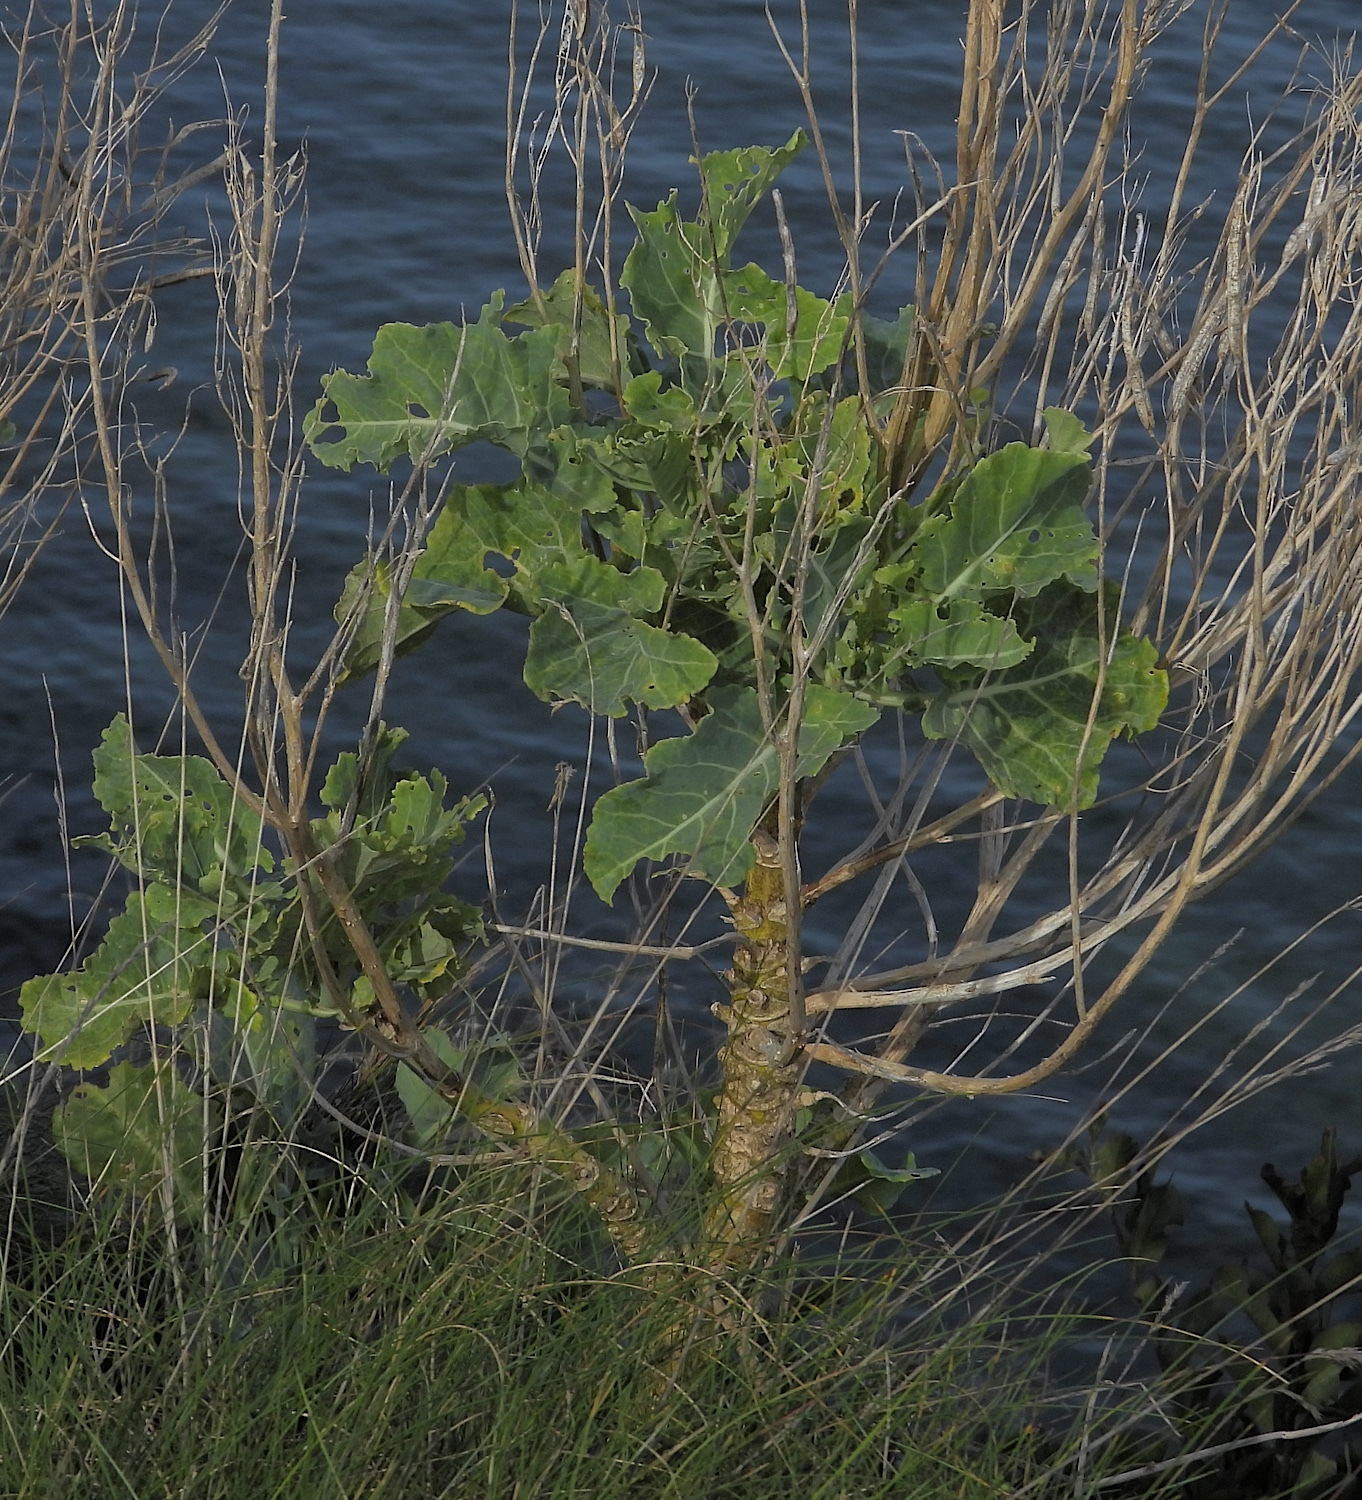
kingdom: Plantae
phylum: Tracheophyta
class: Magnoliopsida
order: Brassicales
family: Brassicaceae
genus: Brassica
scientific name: Brassica oleracea
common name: Cabbage
